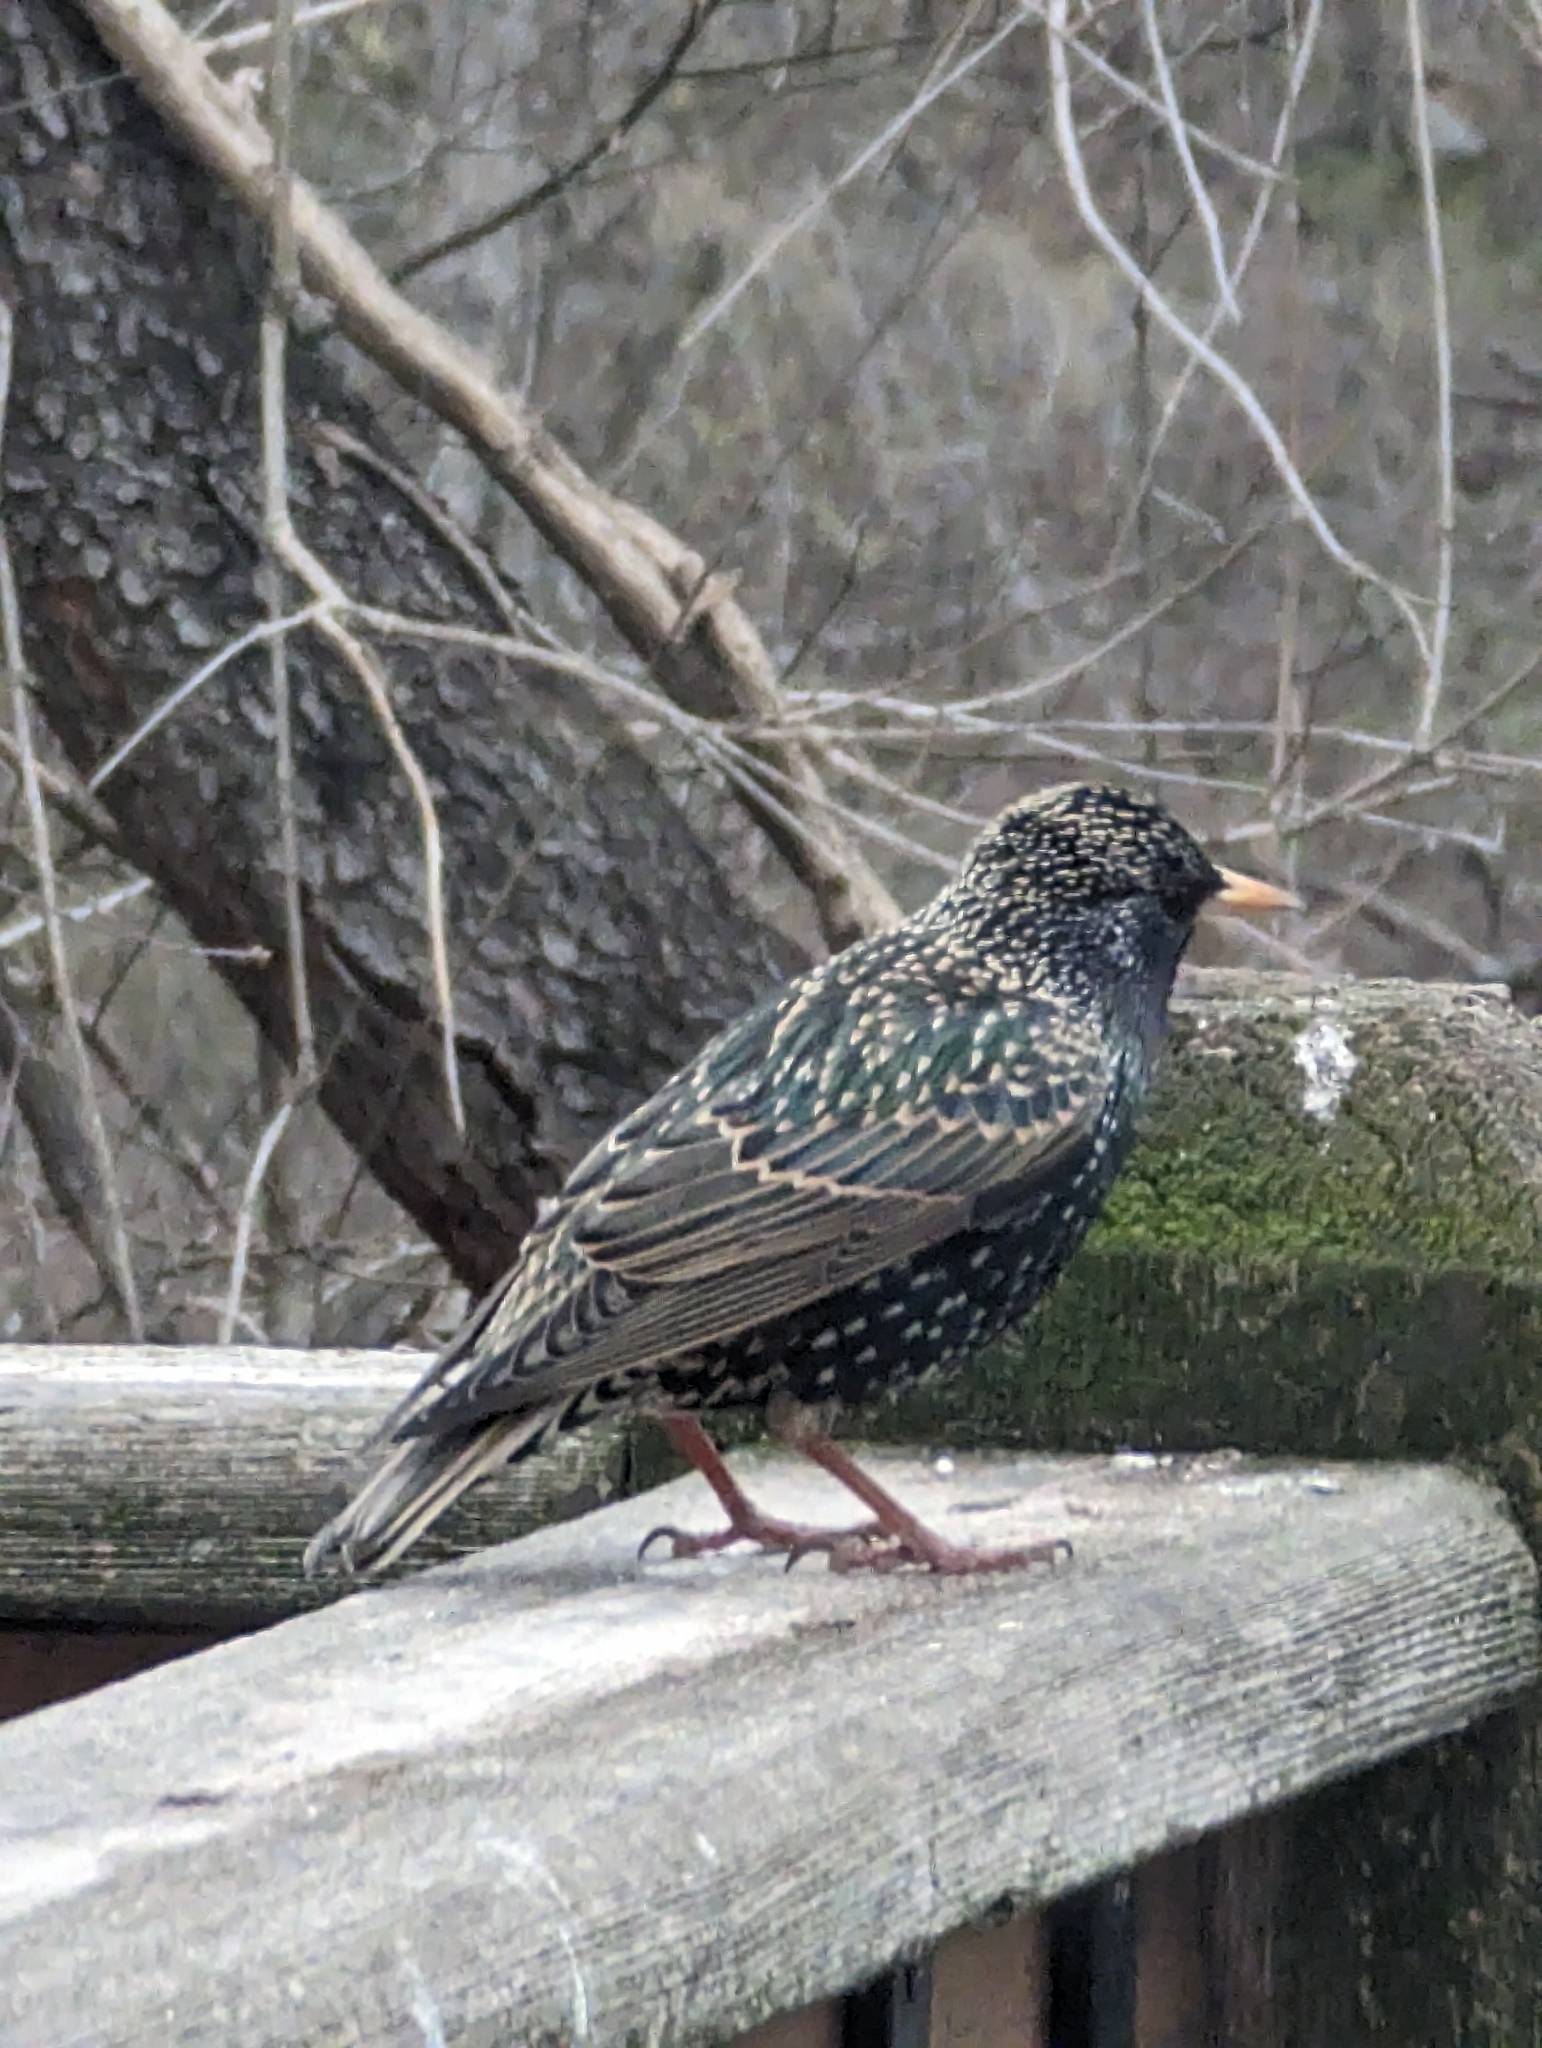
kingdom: Animalia
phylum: Chordata
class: Aves
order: Passeriformes
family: Sturnidae
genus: Sturnus
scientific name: Sturnus vulgaris
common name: Common starling
